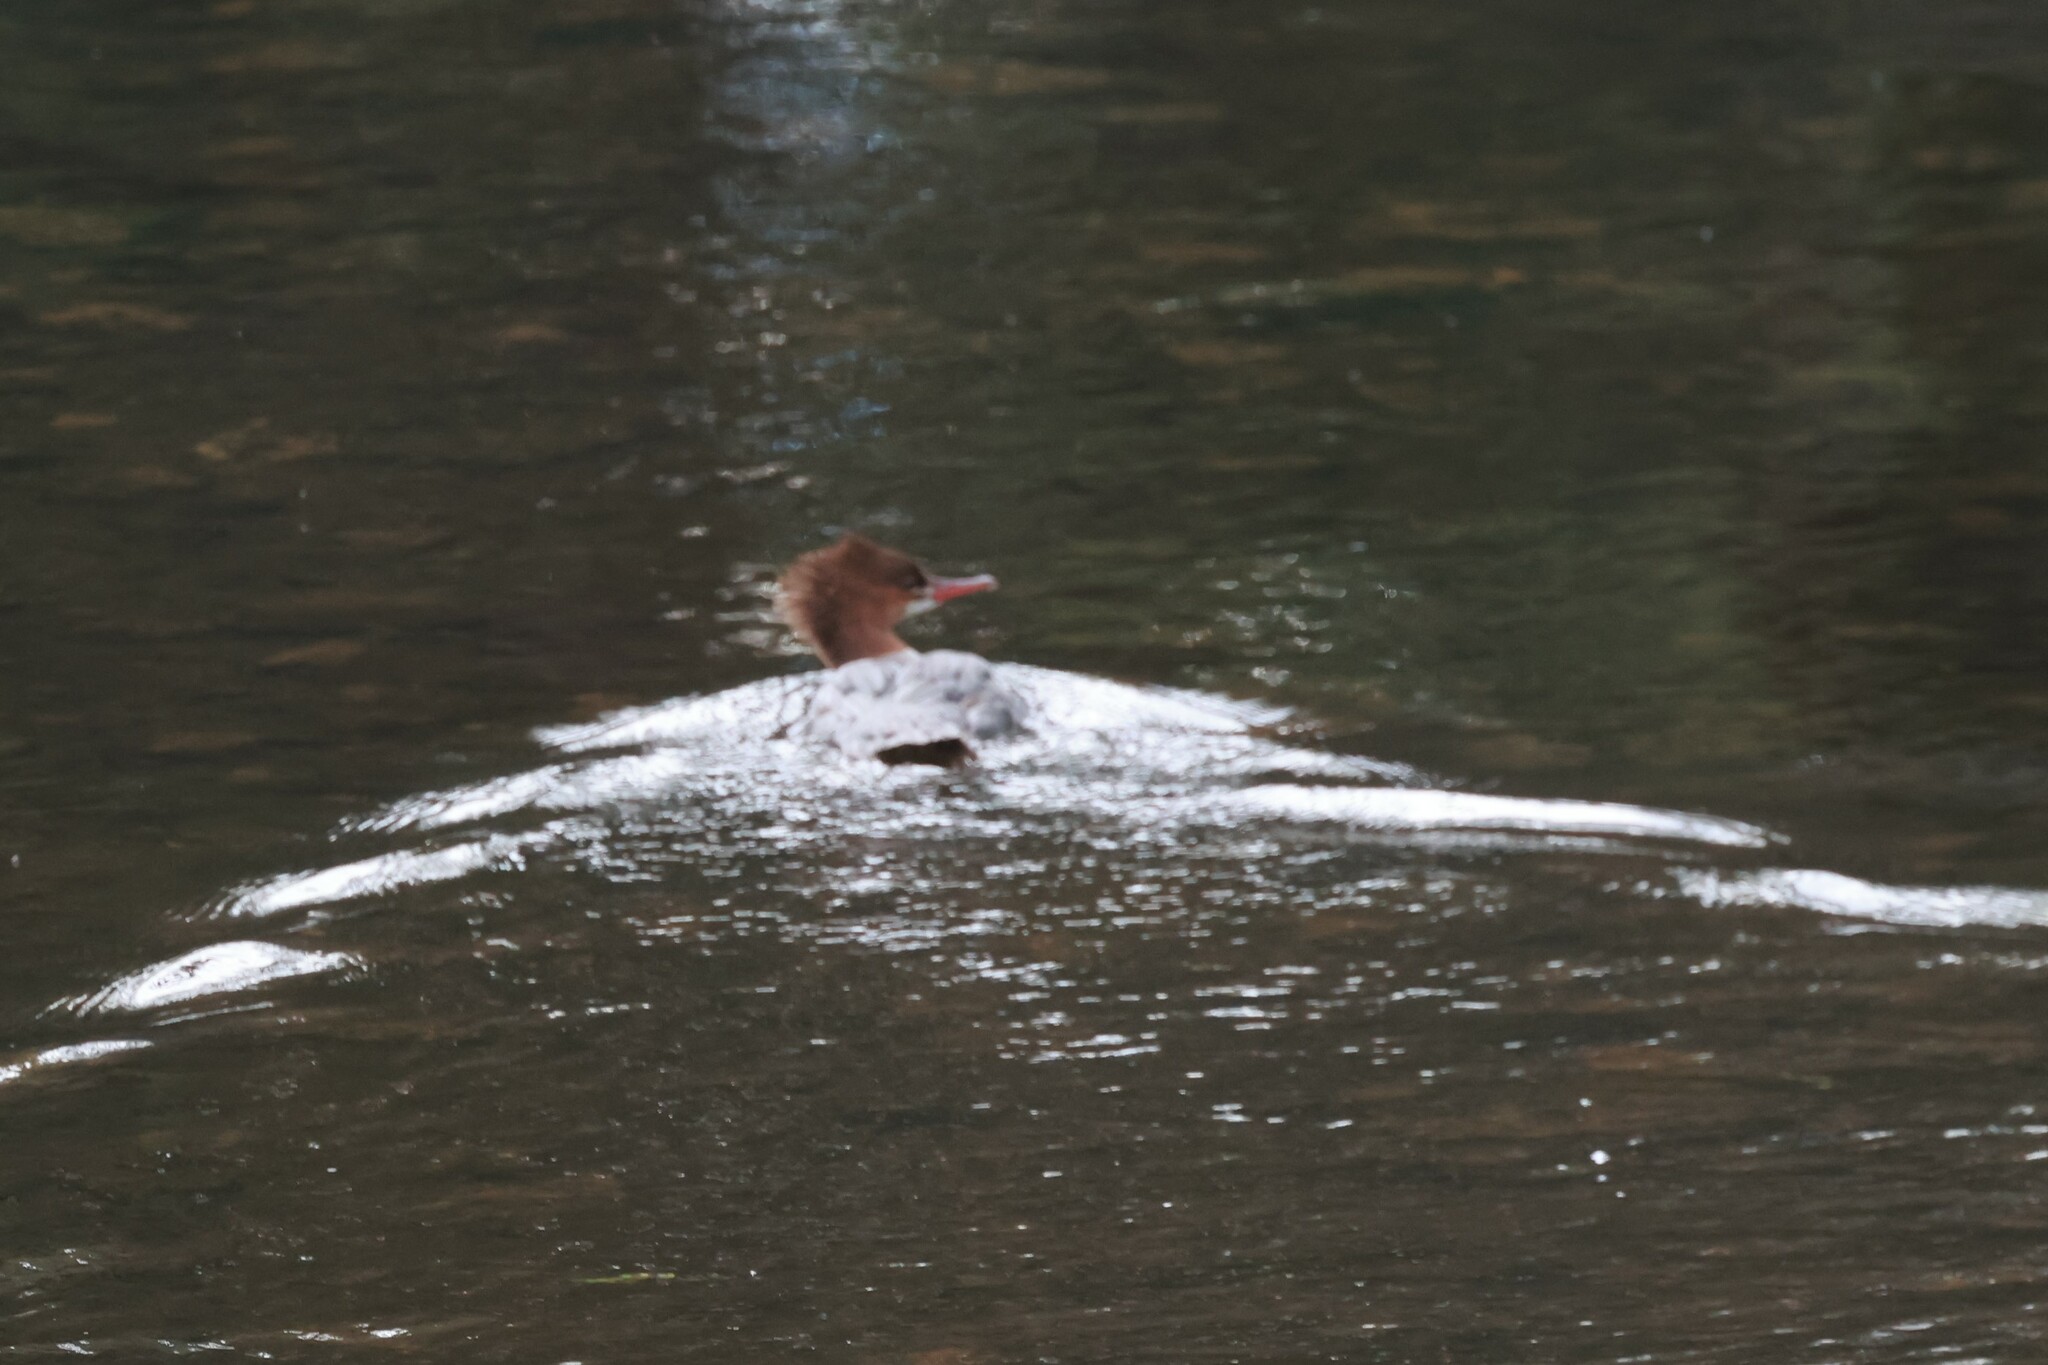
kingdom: Animalia
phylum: Chordata
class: Aves
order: Anseriformes
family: Anatidae
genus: Mergus
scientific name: Mergus merganser
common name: Common merganser
